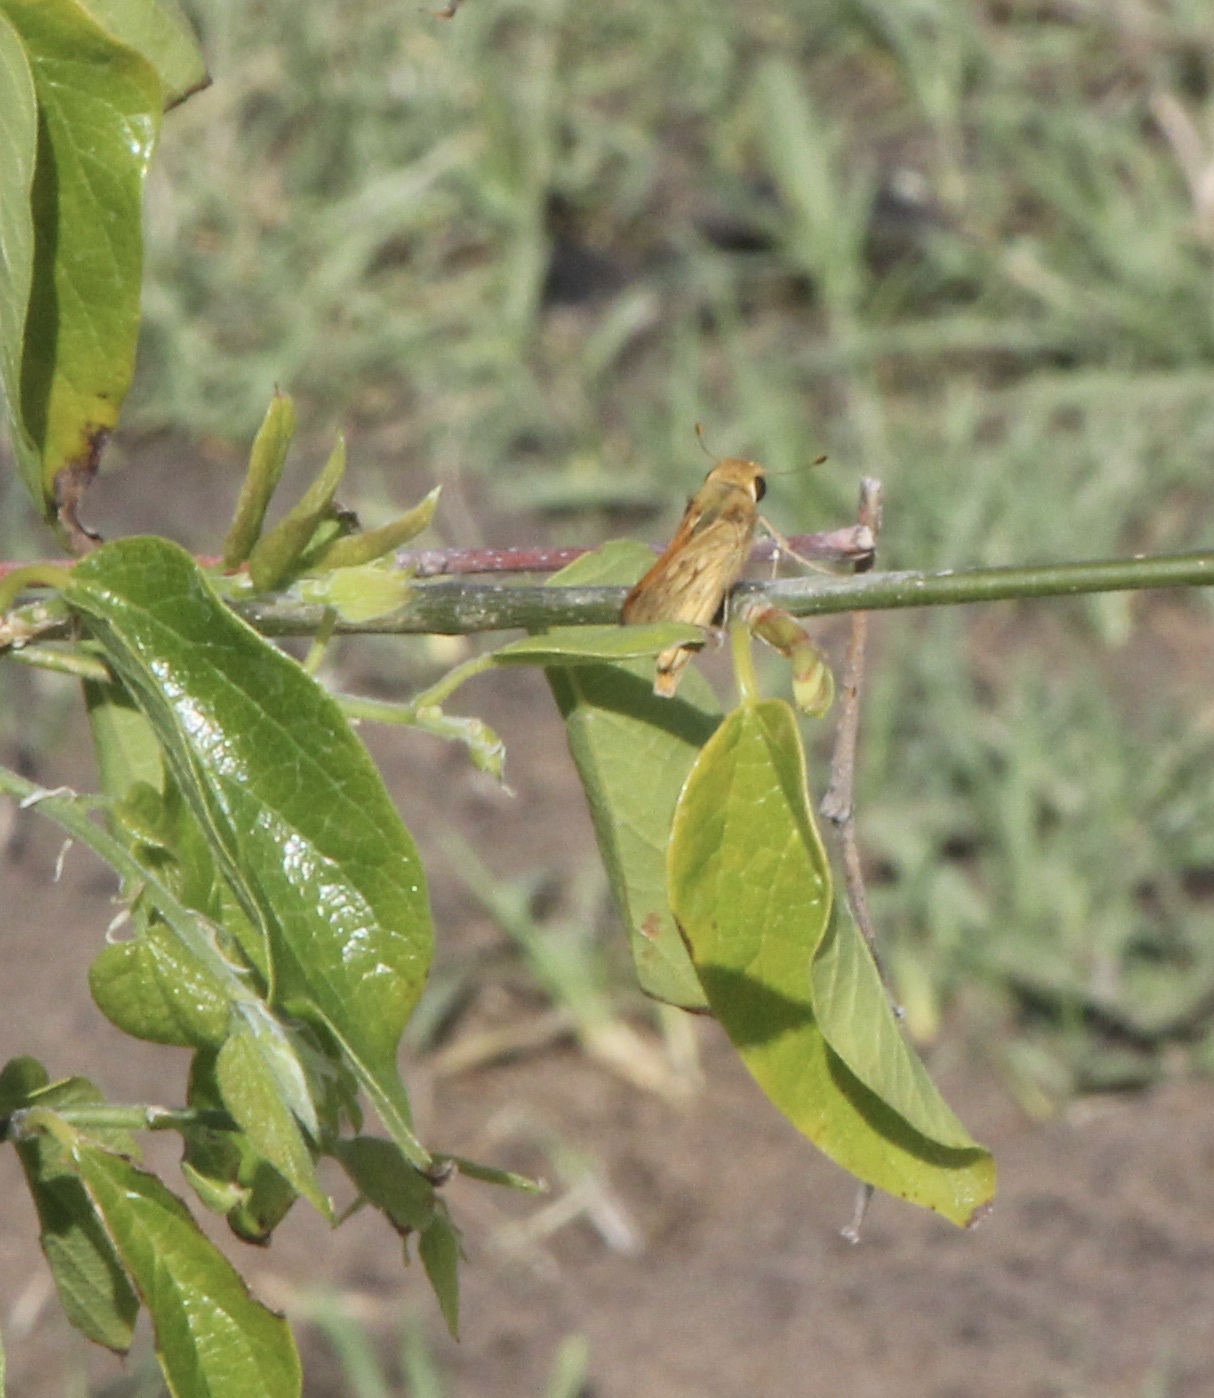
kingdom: Animalia
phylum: Arthropoda
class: Insecta
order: Lepidoptera
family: Hesperiidae
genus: Hylephila
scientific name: Hylephila phyleus
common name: Fiery skipper
